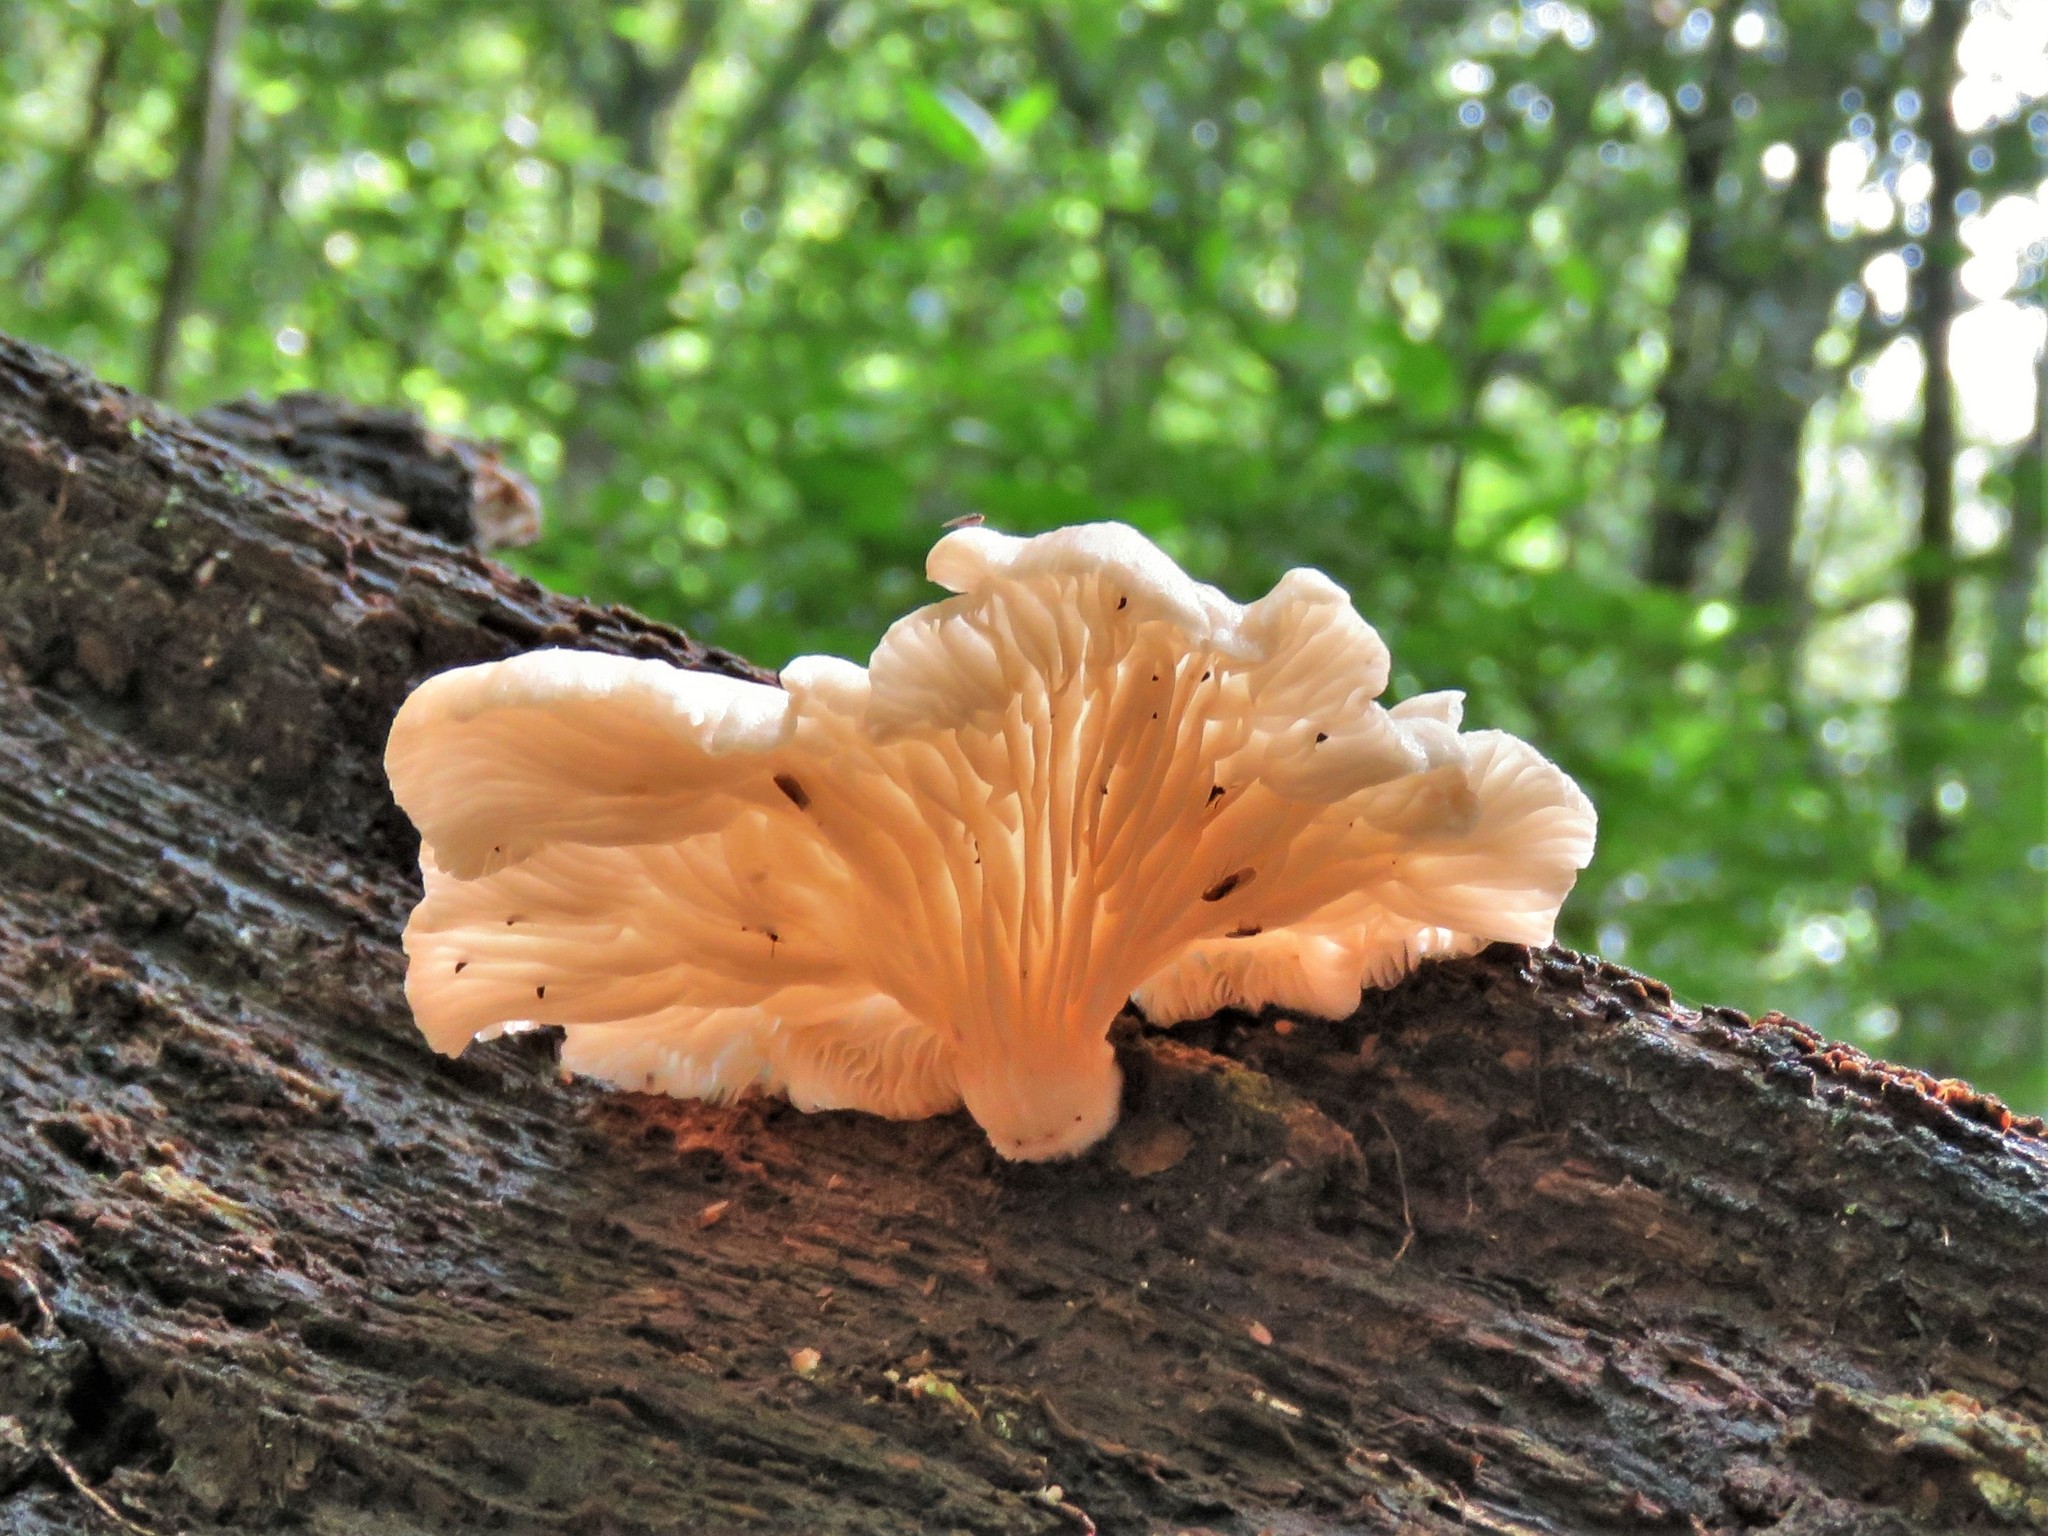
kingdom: Fungi
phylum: Basidiomycota
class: Agaricomycetes
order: Agaricales
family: Pleurotaceae
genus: Pleurotus
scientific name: Pleurotus djamor
